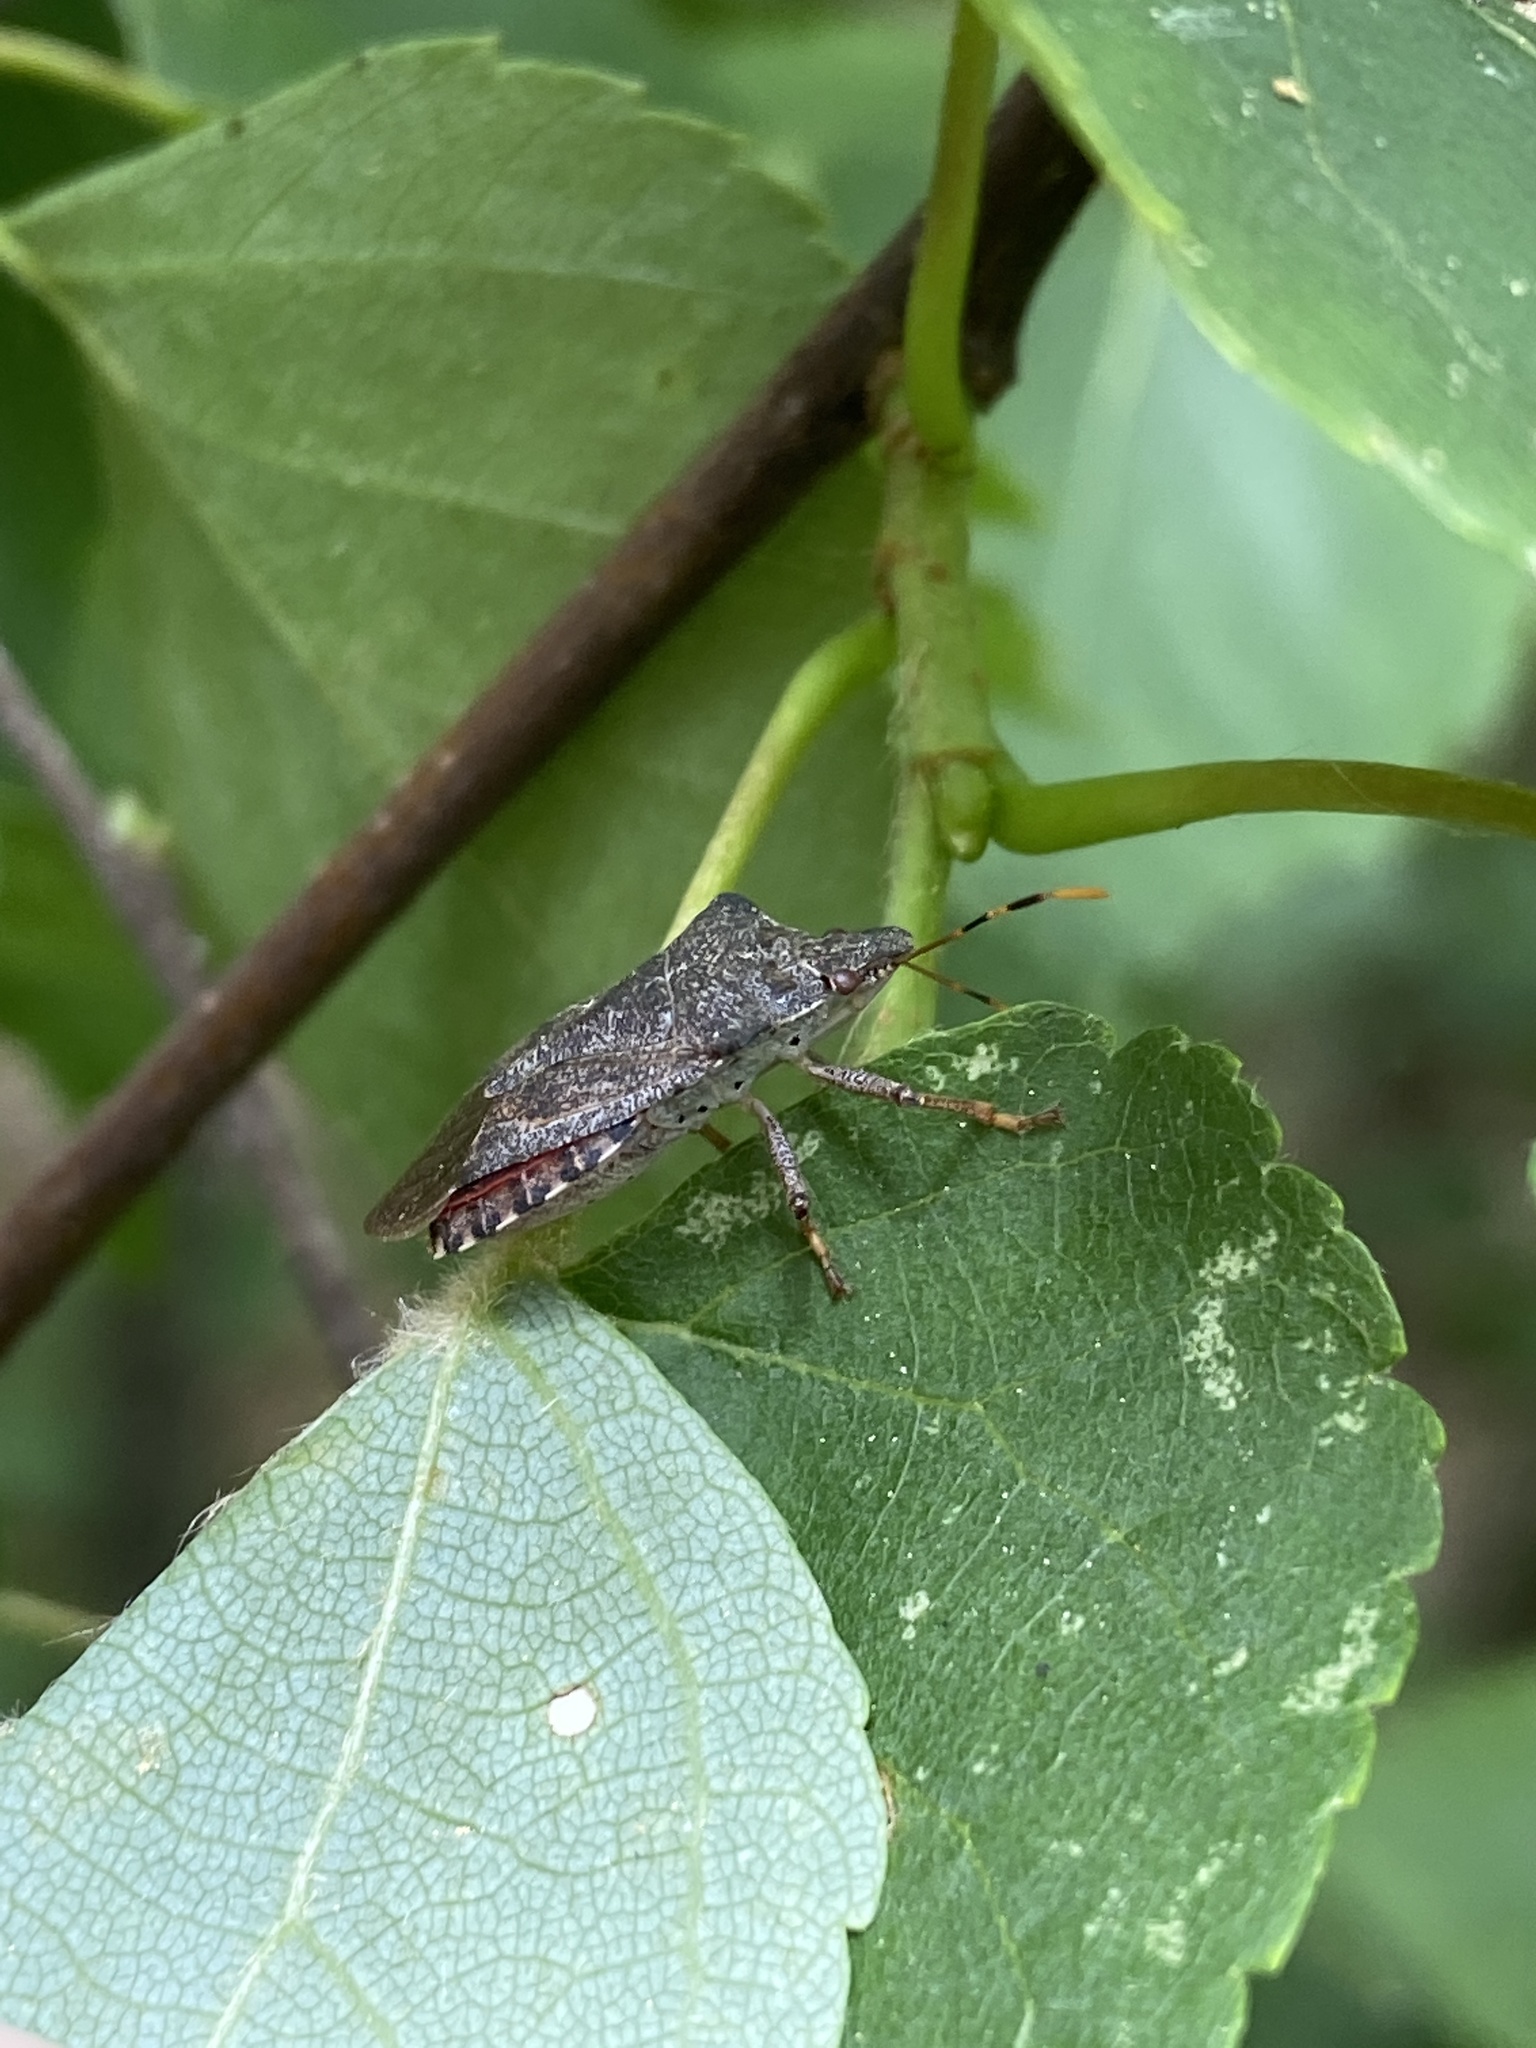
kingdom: Animalia
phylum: Arthropoda
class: Insecta
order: Hemiptera
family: Pentatomidae
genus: Arma
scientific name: Arma custos
